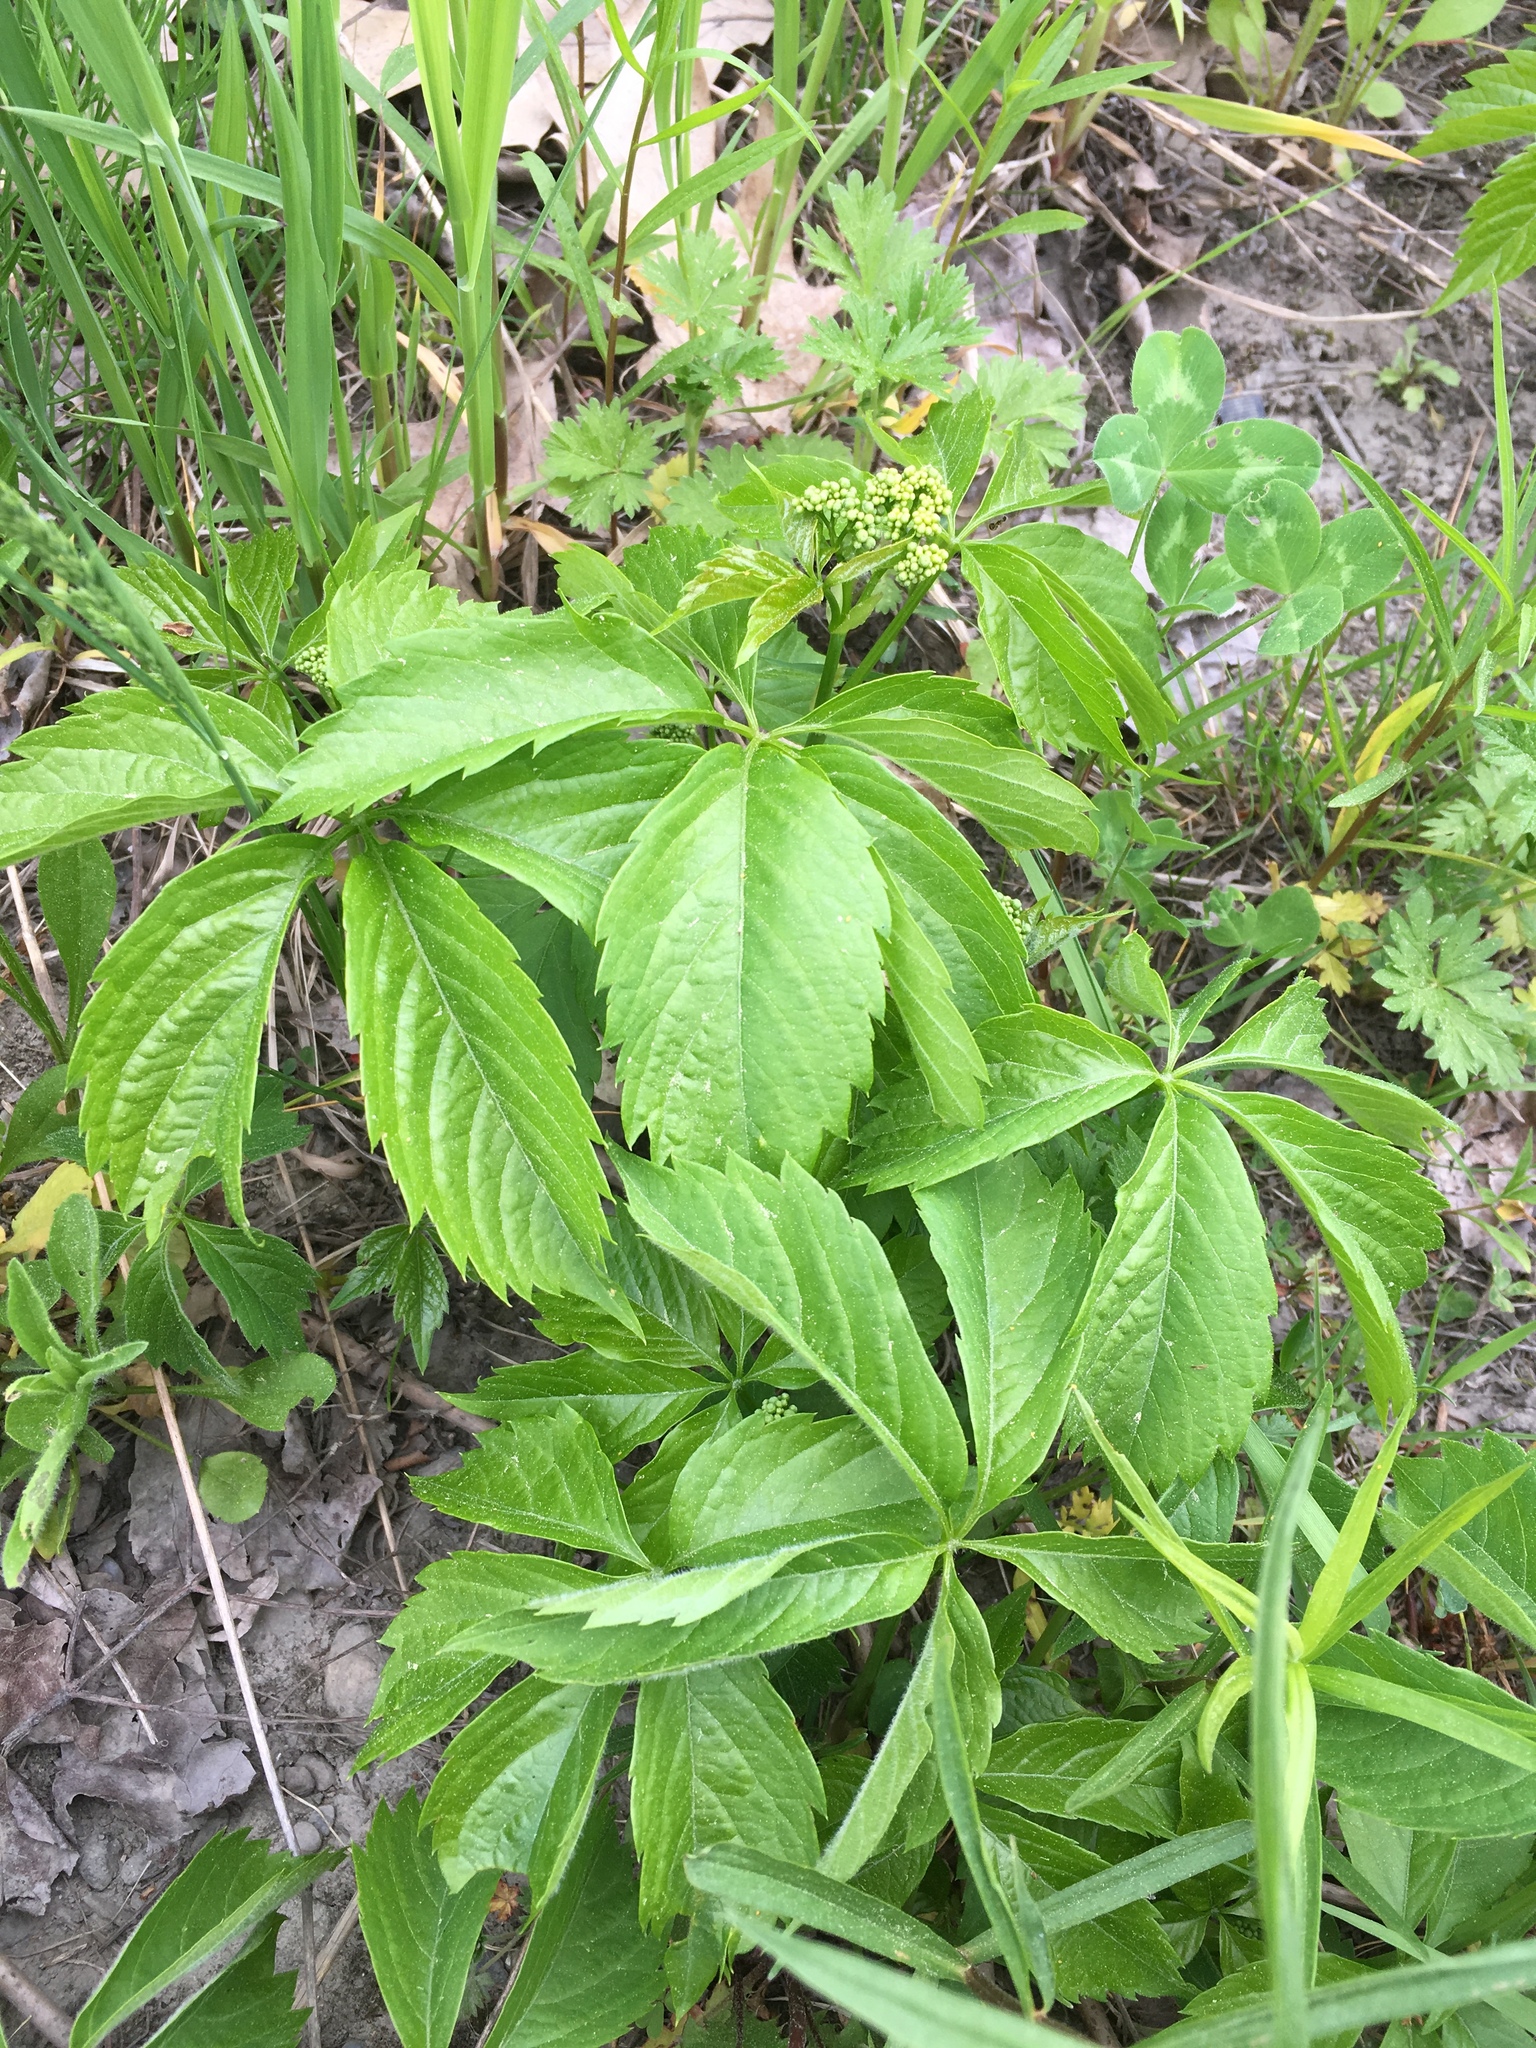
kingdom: Plantae
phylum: Tracheophyta
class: Magnoliopsida
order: Vitales
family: Vitaceae
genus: Parthenocissus
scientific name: Parthenocissus quinquefolia
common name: Virginia-creeper
